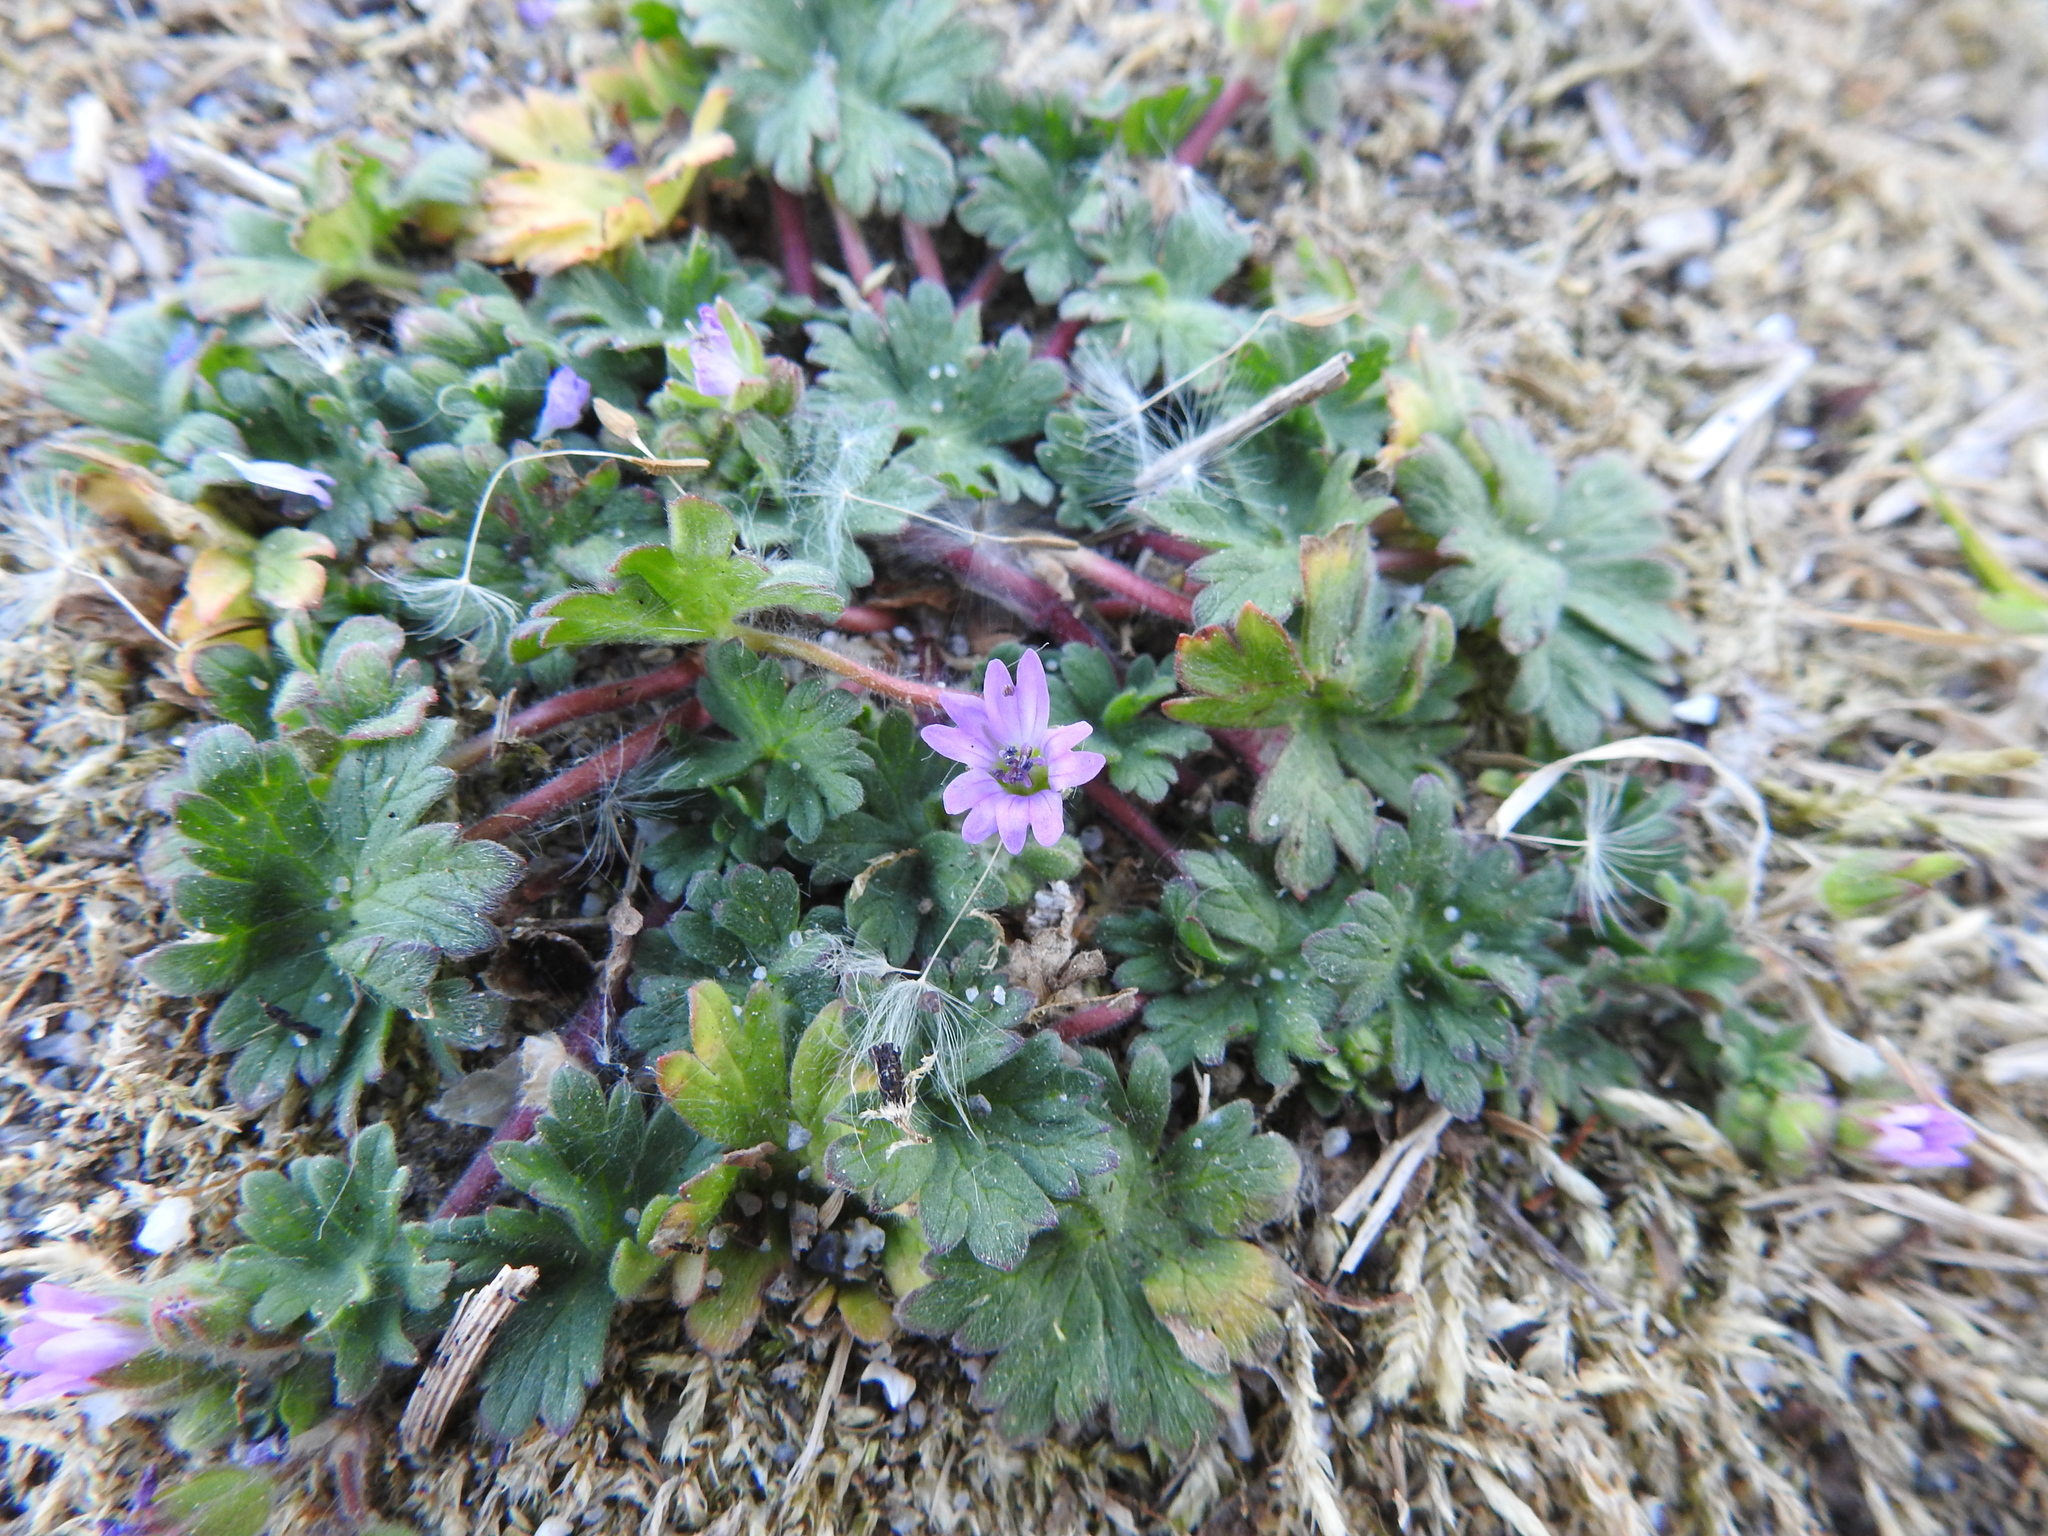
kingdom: Plantae
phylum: Tracheophyta
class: Magnoliopsida
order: Geraniales
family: Geraniaceae
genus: Geranium
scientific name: Geranium molle
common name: Dove's-foot crane's-bill
